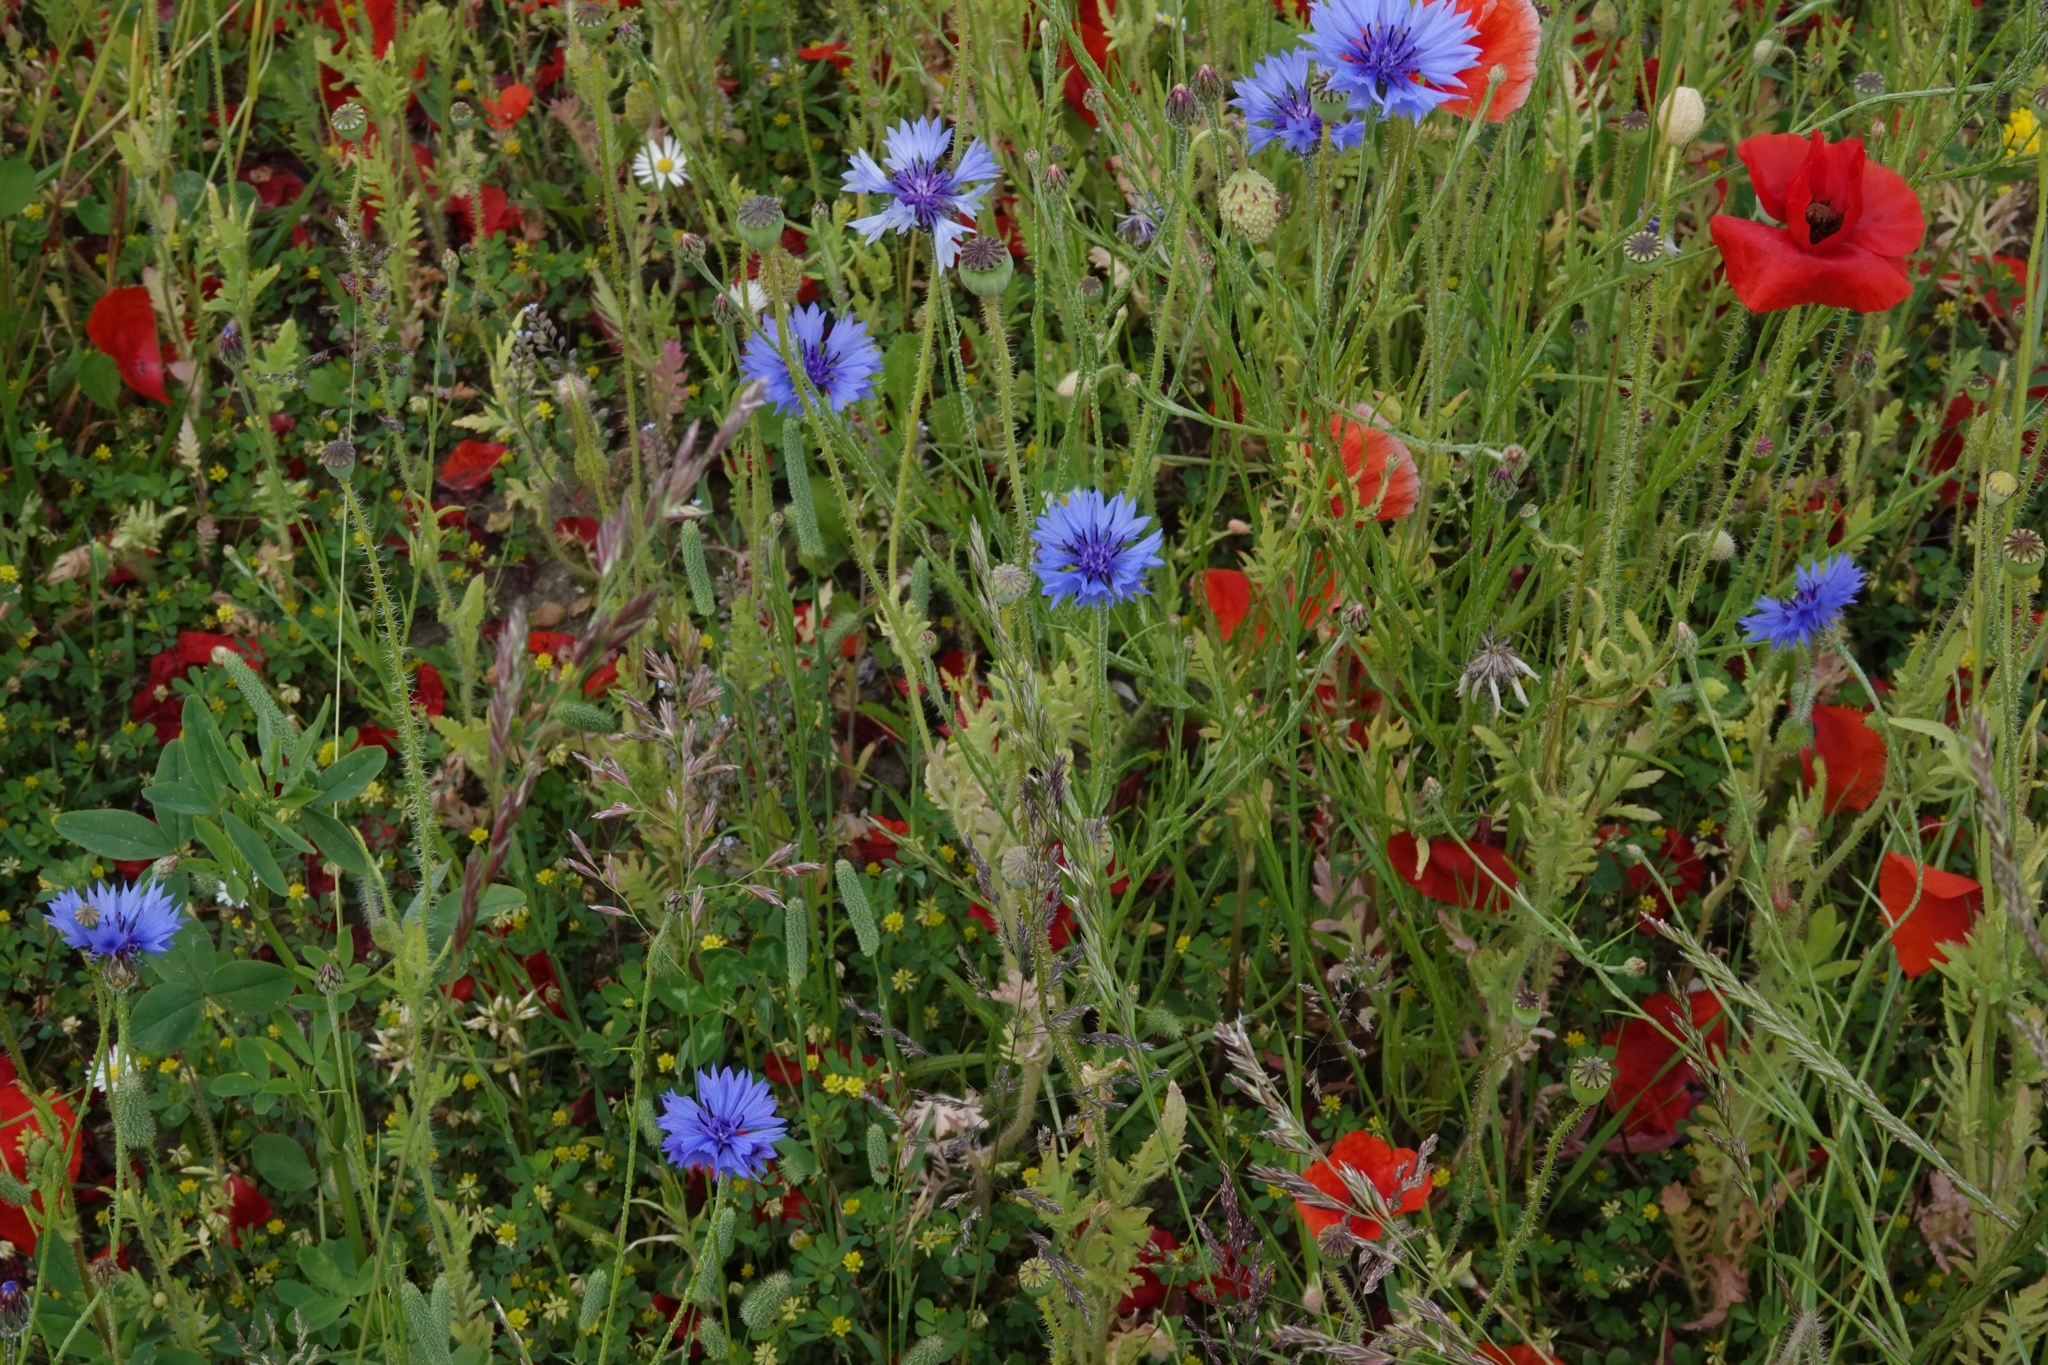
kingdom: Plantae
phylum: Tracheophyta
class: Magnoliopsida
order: Asterales
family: Asteraceae
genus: Centaurea
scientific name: Centaurea cyanus
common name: Cornflower
